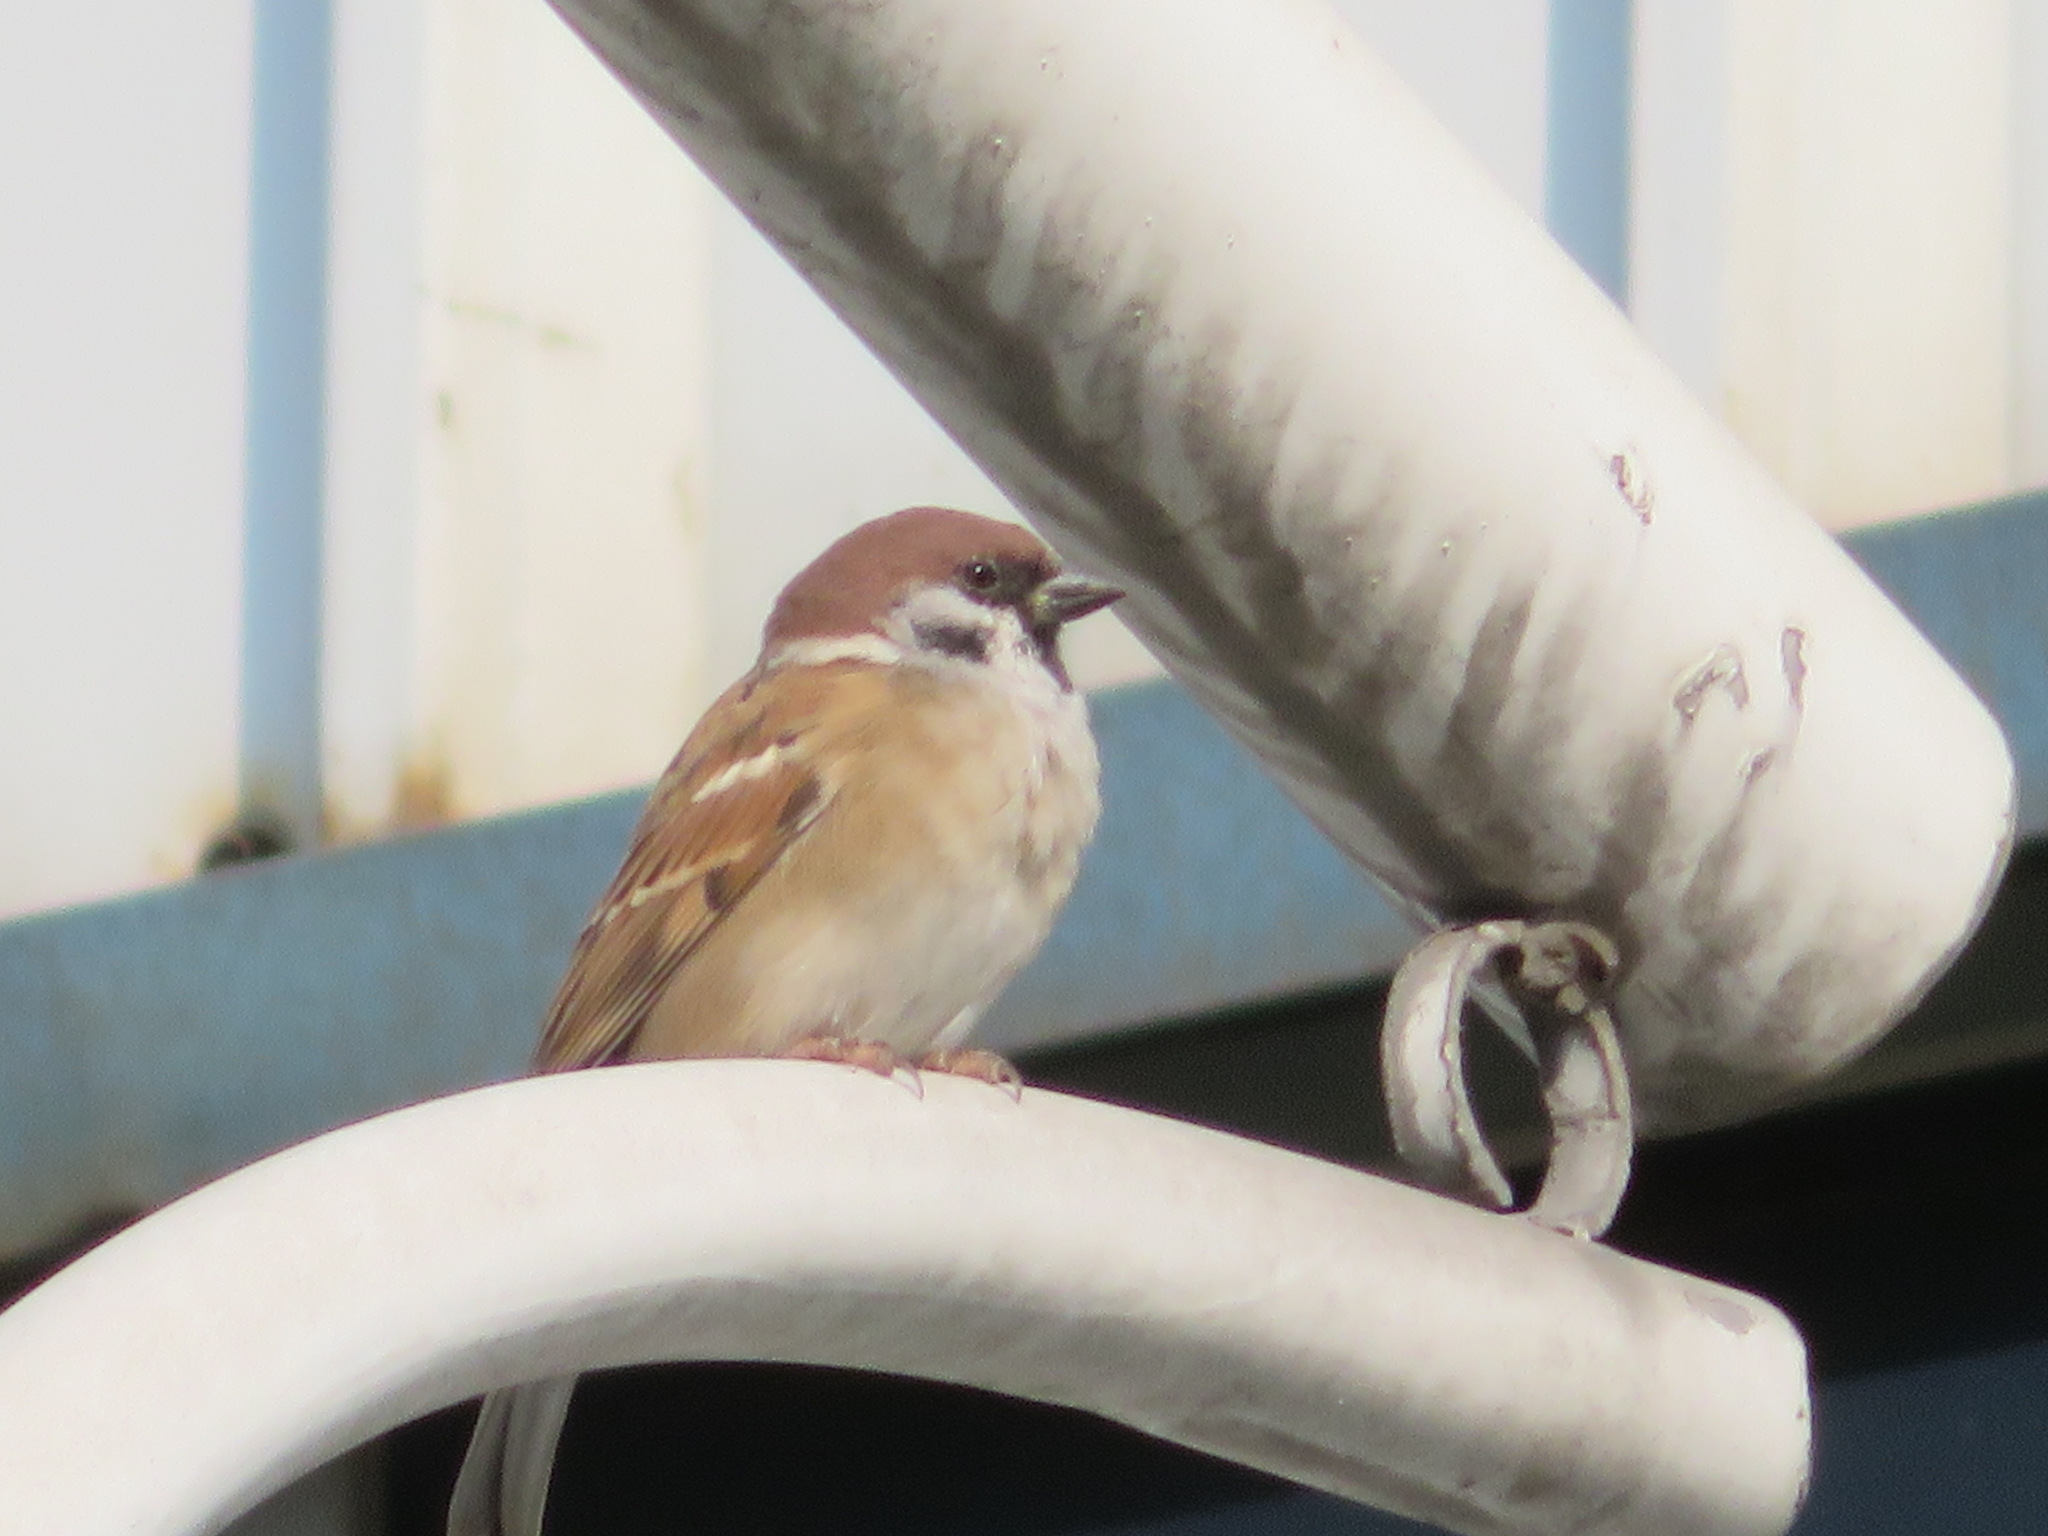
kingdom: Animalia
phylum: Chordata
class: Aves
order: Passeriformes
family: Passeridae
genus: Passer
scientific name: Passer montanus
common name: Eurasian tree sparrow
